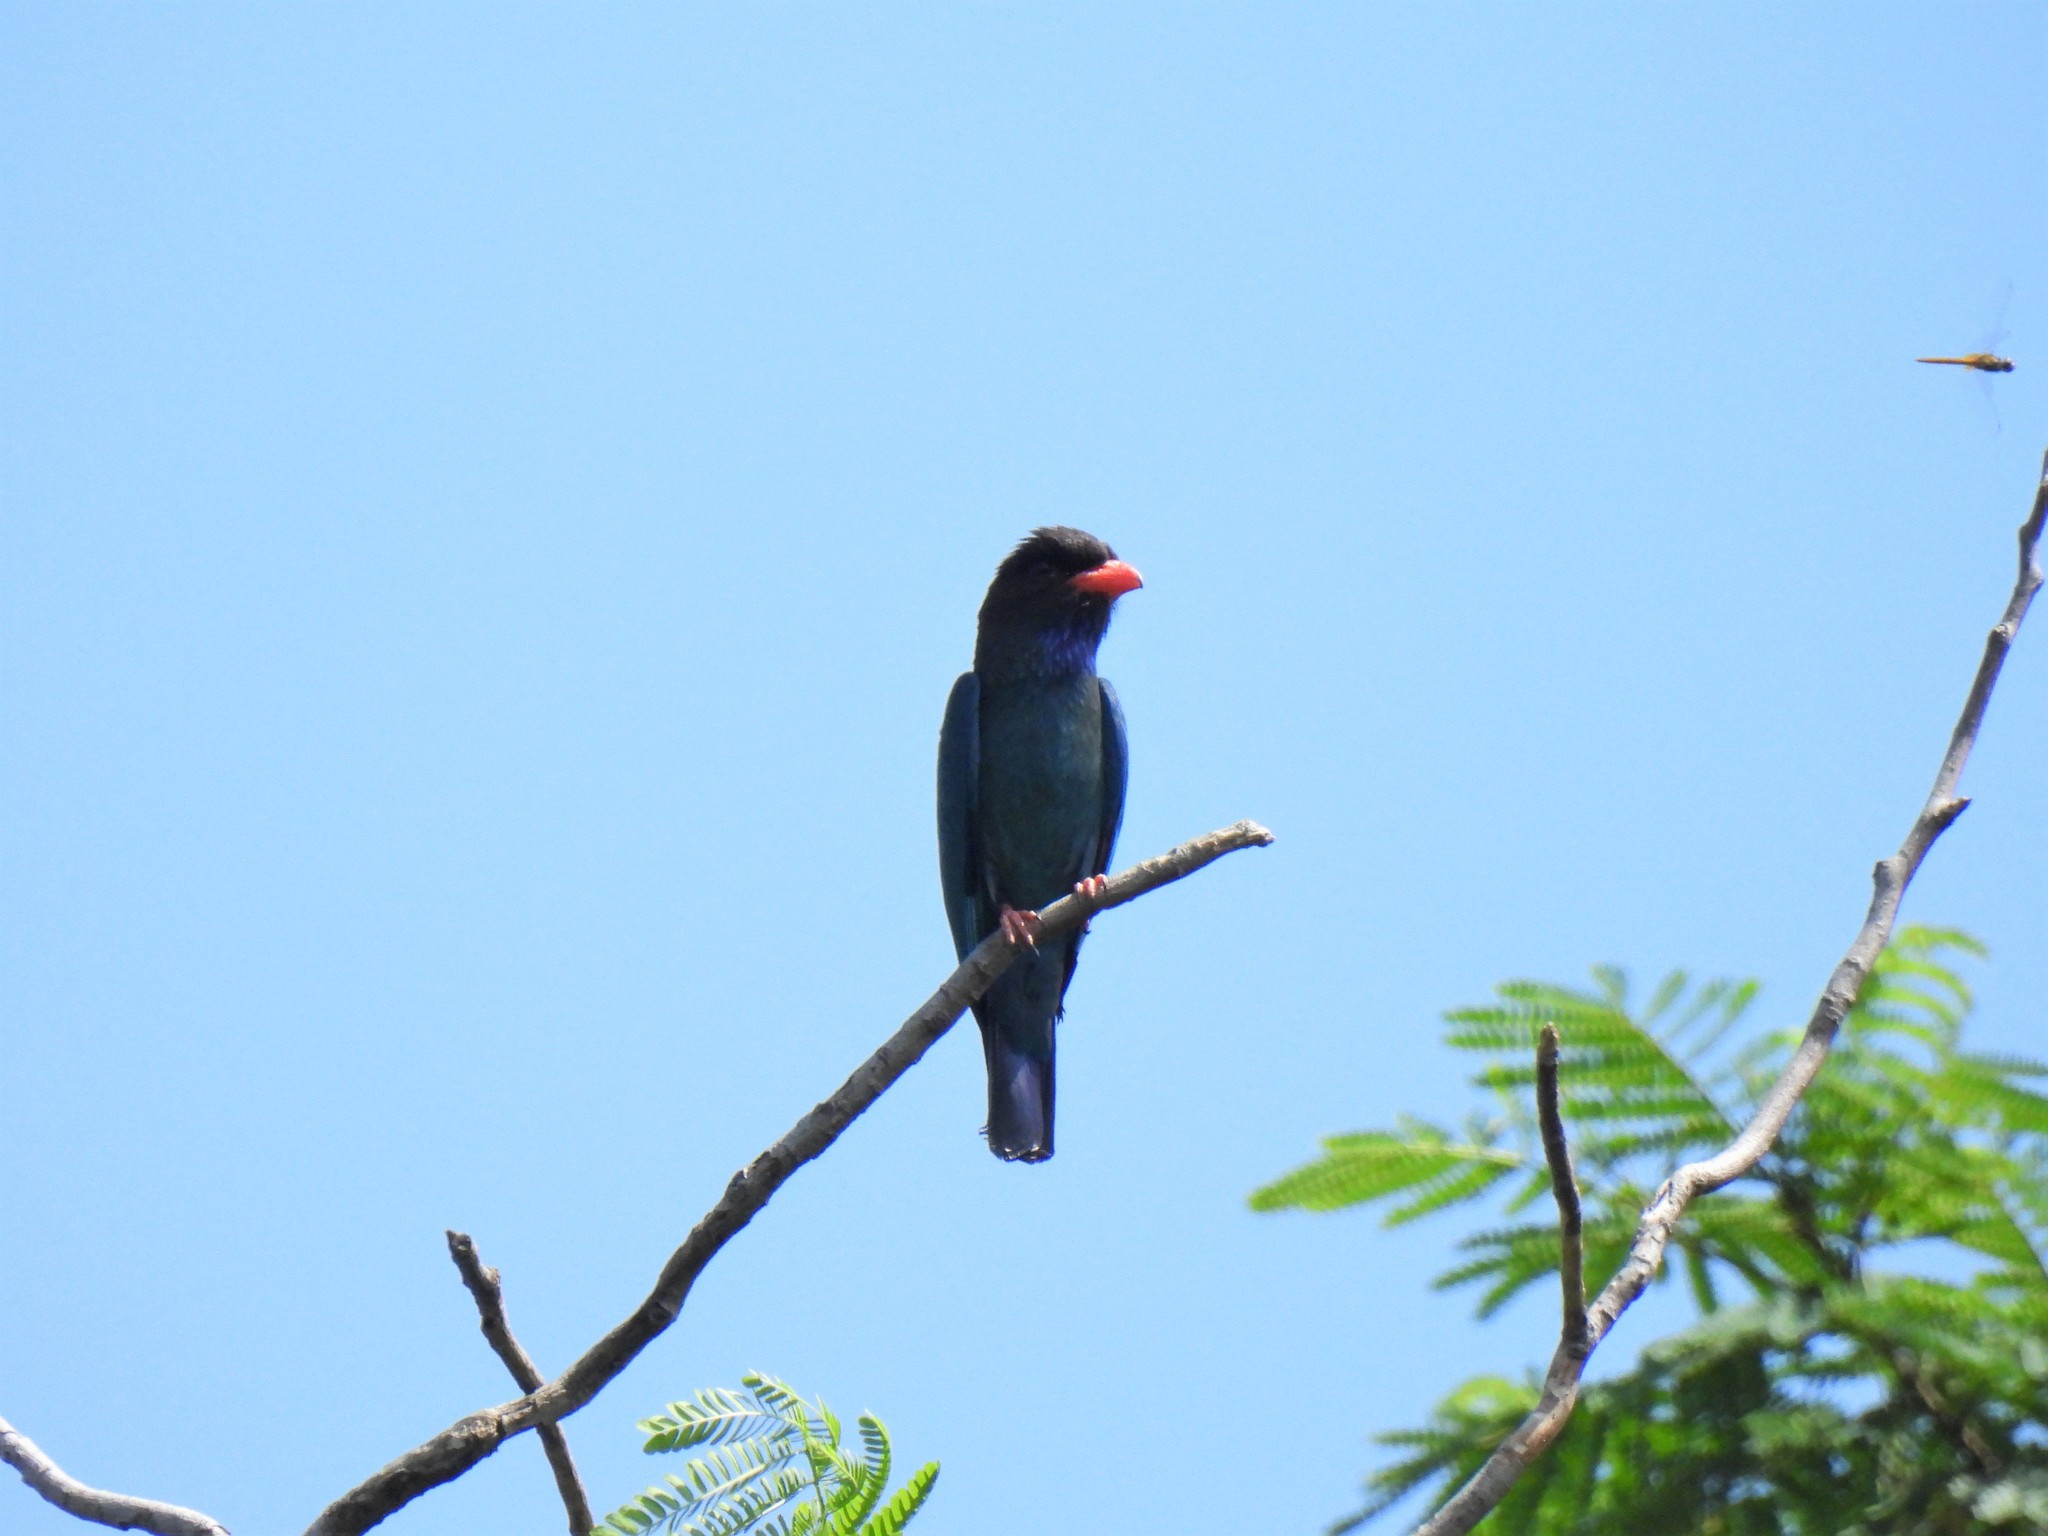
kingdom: Animalia
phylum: Chordata
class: Aves
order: Coraciiformes
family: Coraciidae
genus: Eurystomus
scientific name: Eurystomus orientalis
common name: Oriental dollarbird
